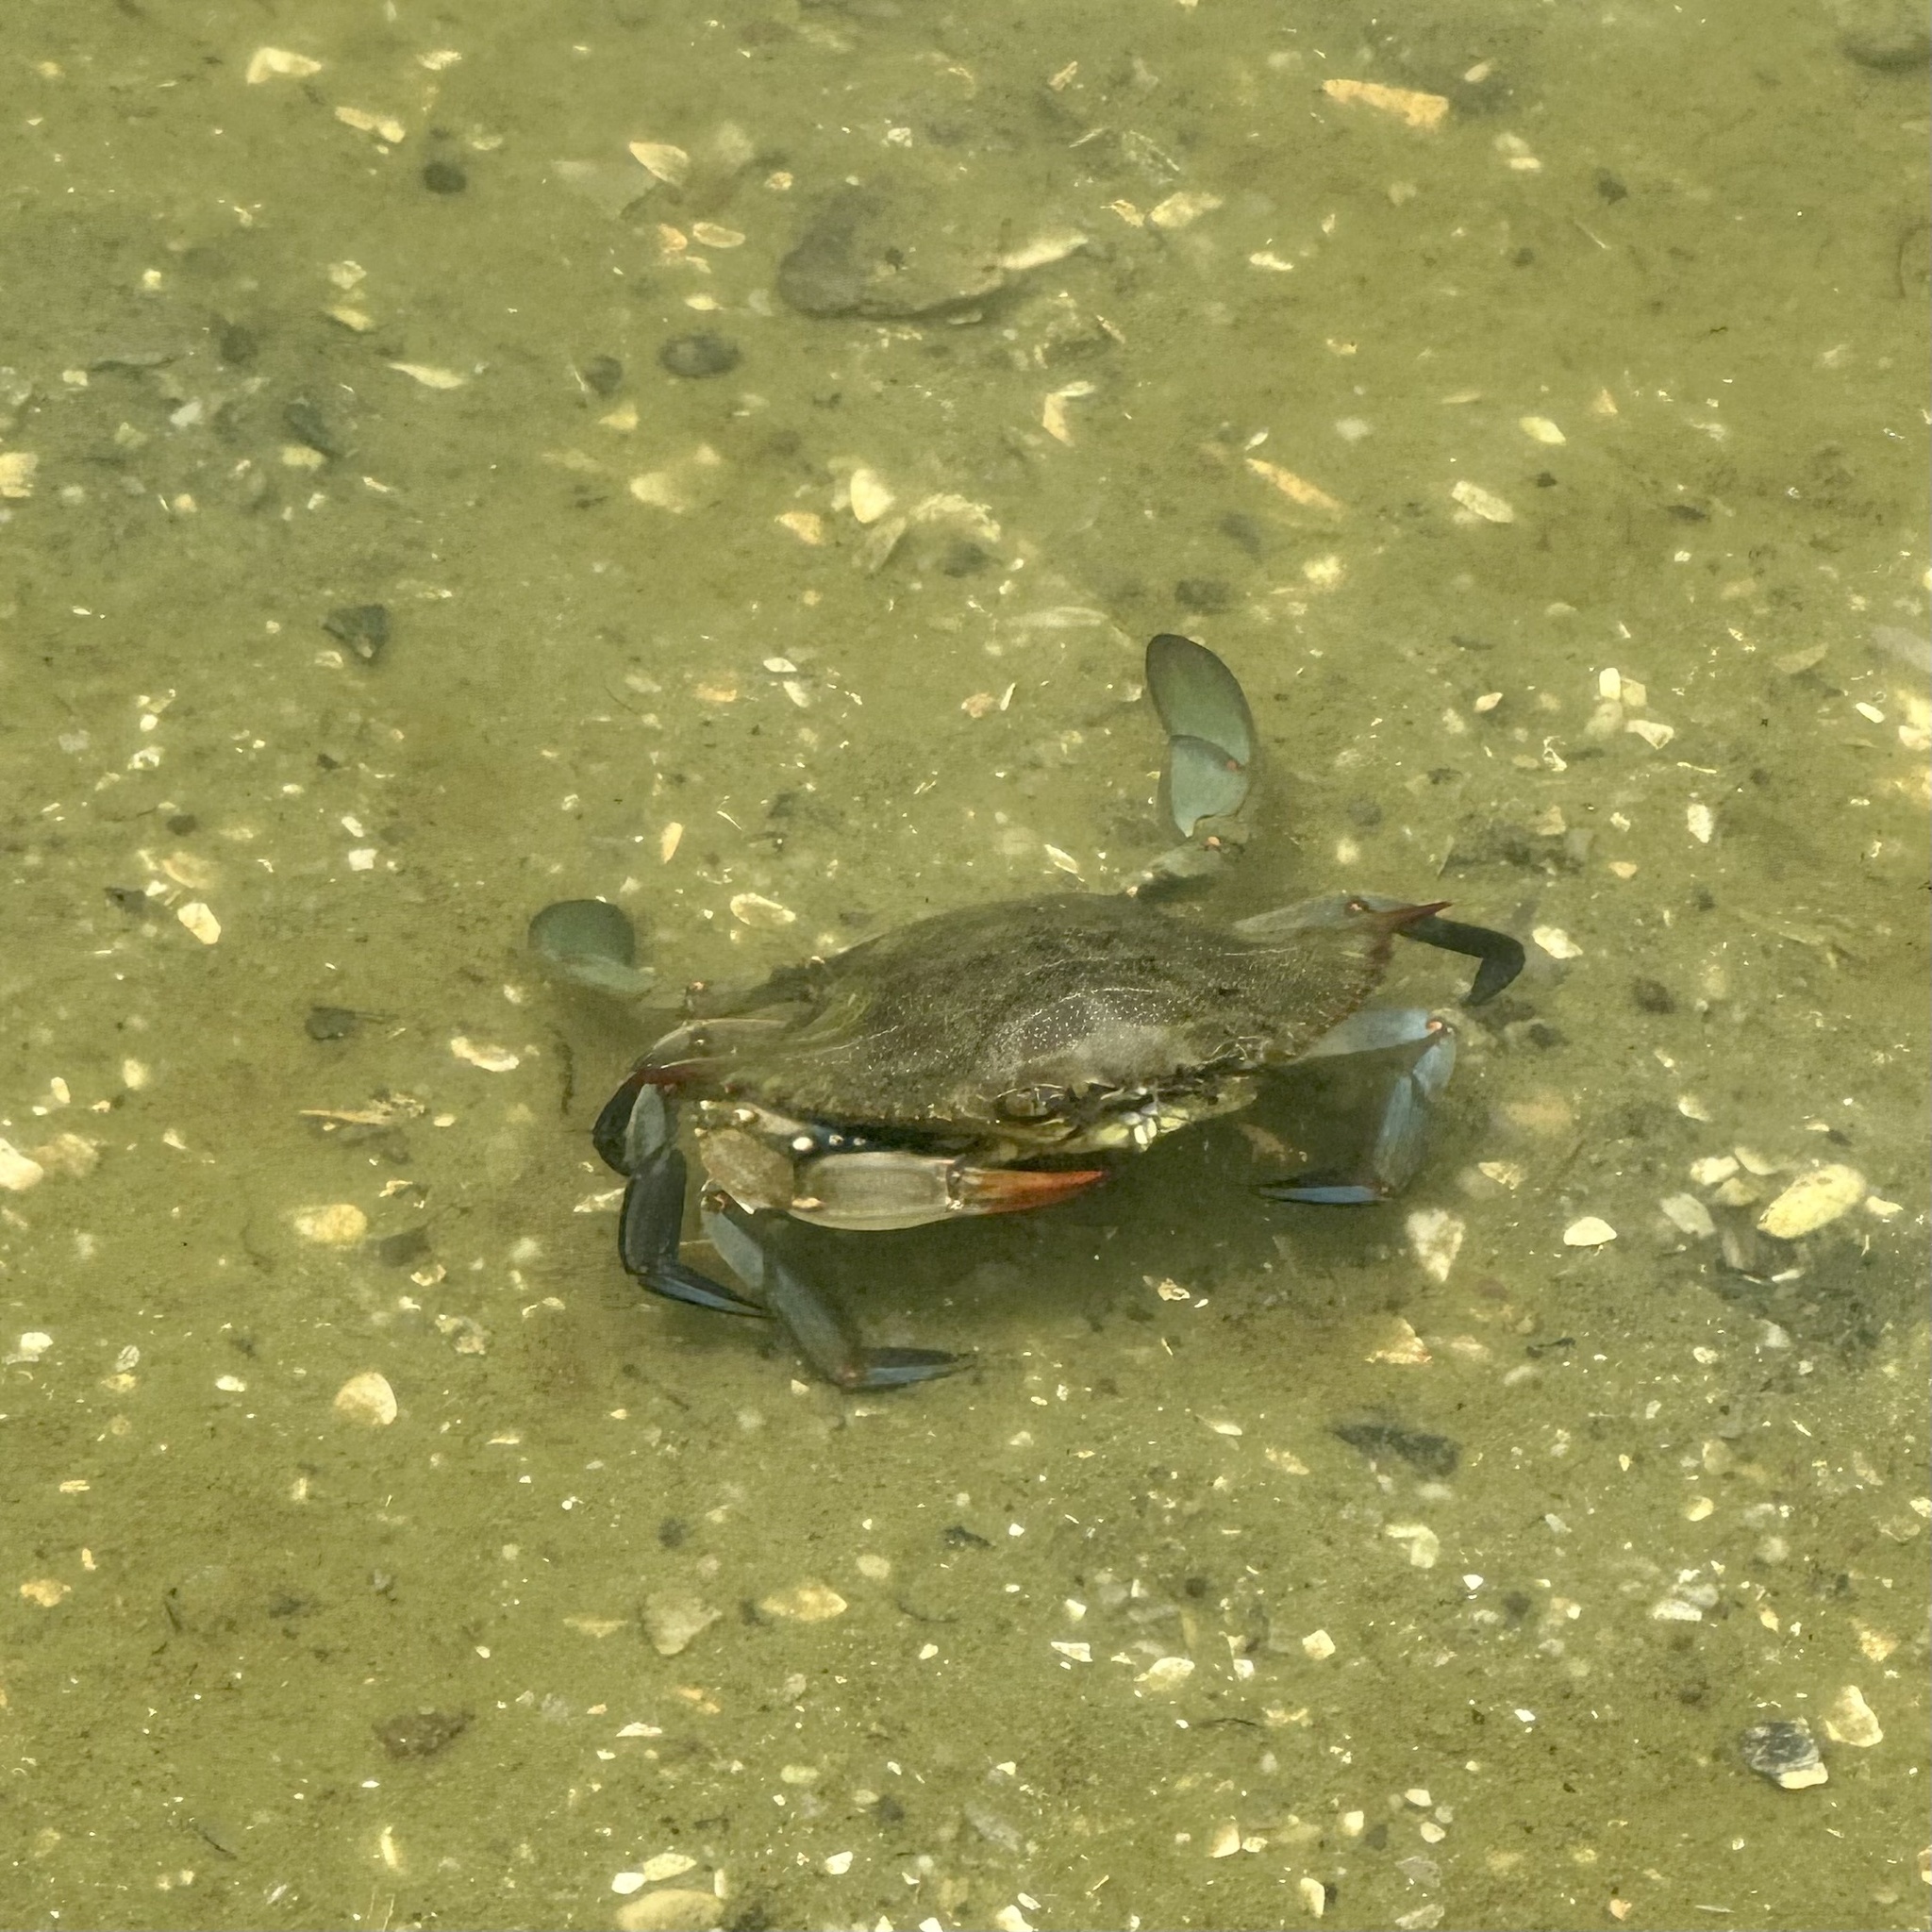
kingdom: Animalia
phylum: Arthropoda
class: Malacostraca
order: Decapoda
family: Portunidae
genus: Callinectes
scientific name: Callinectes sapidus
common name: Blue crab
